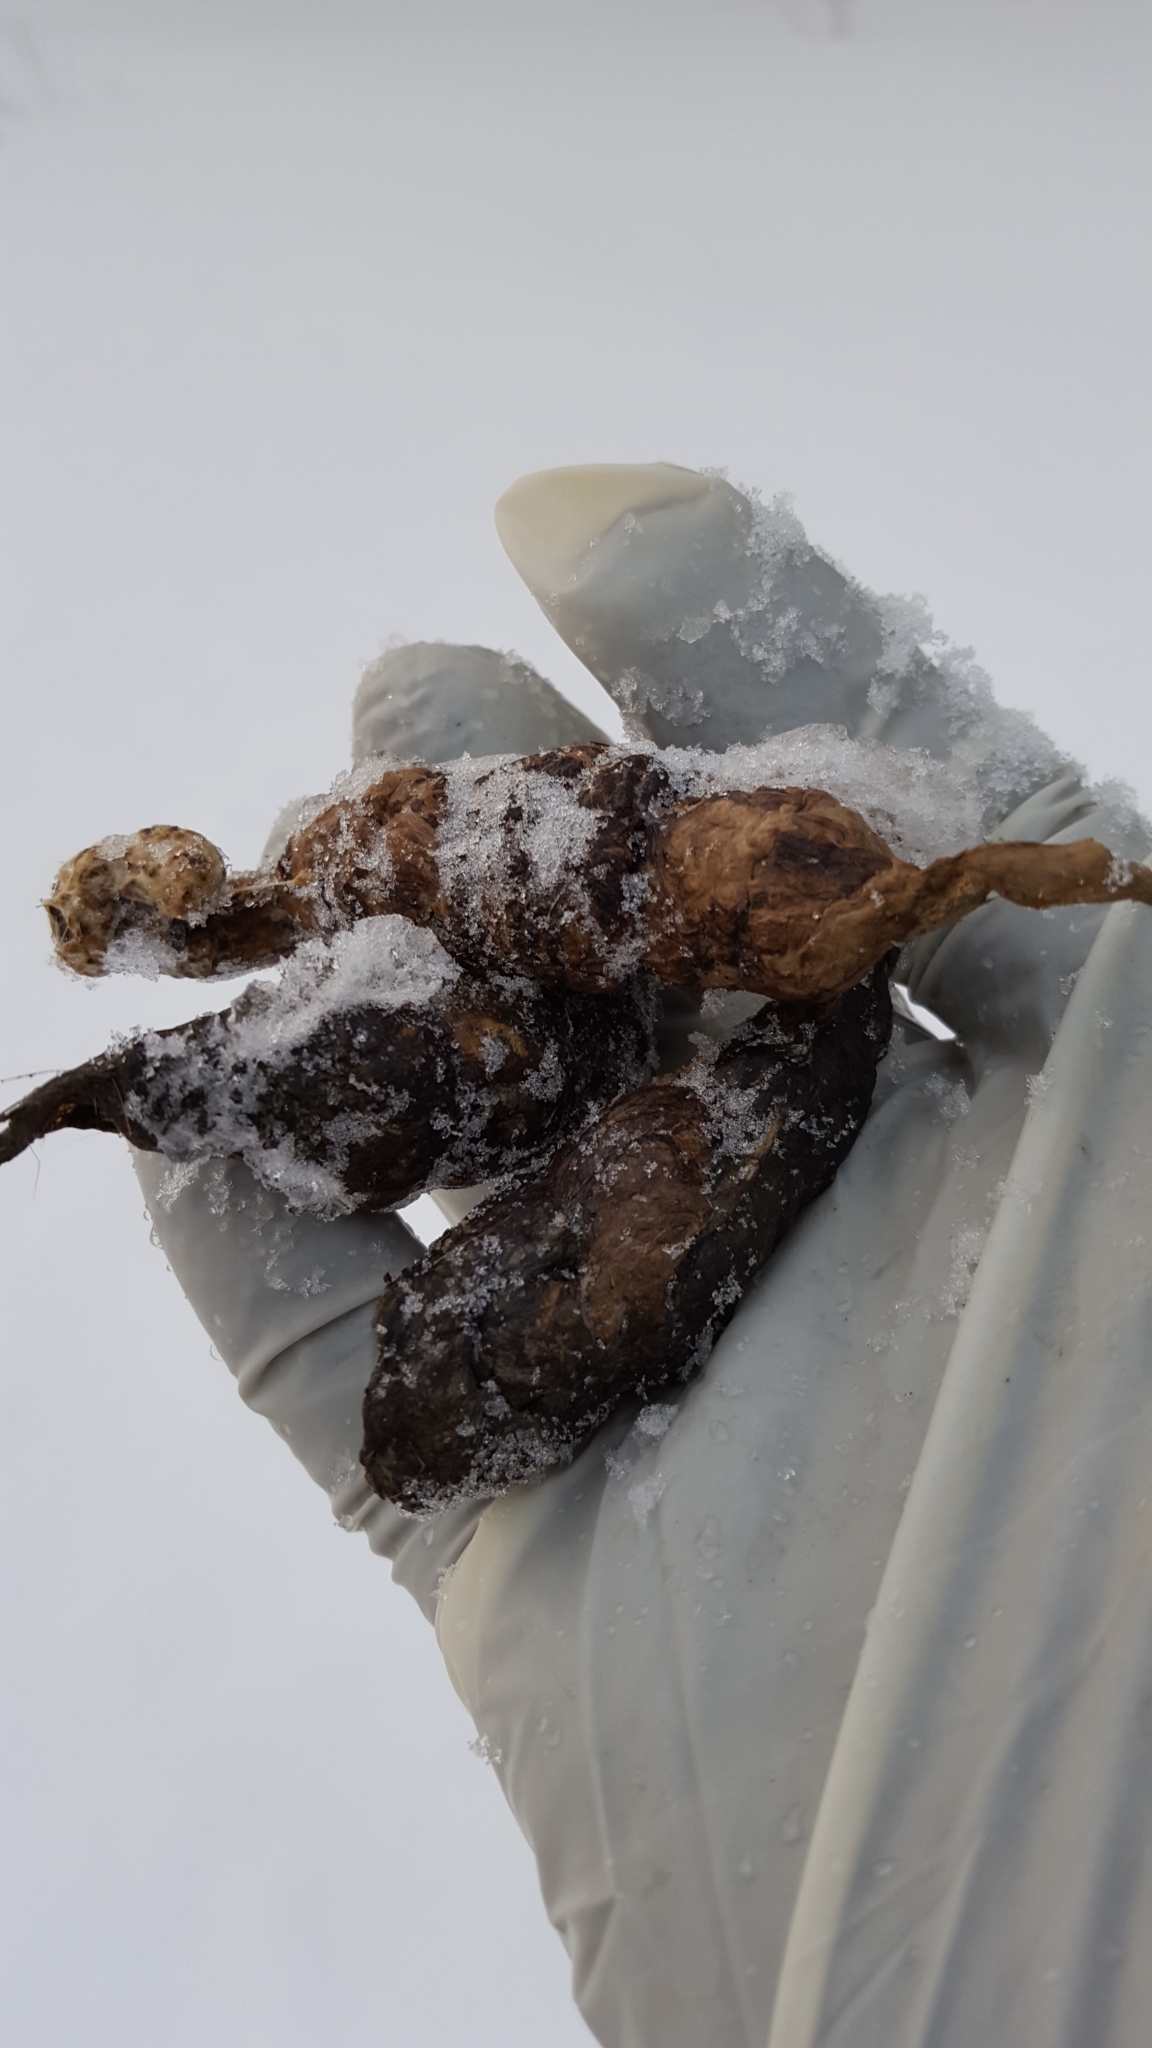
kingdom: Animalia
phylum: Chordata
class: Mammalia
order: Carnivora
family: Felidae
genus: Lynx
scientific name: Lynx canadensis
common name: Canadian lynx
